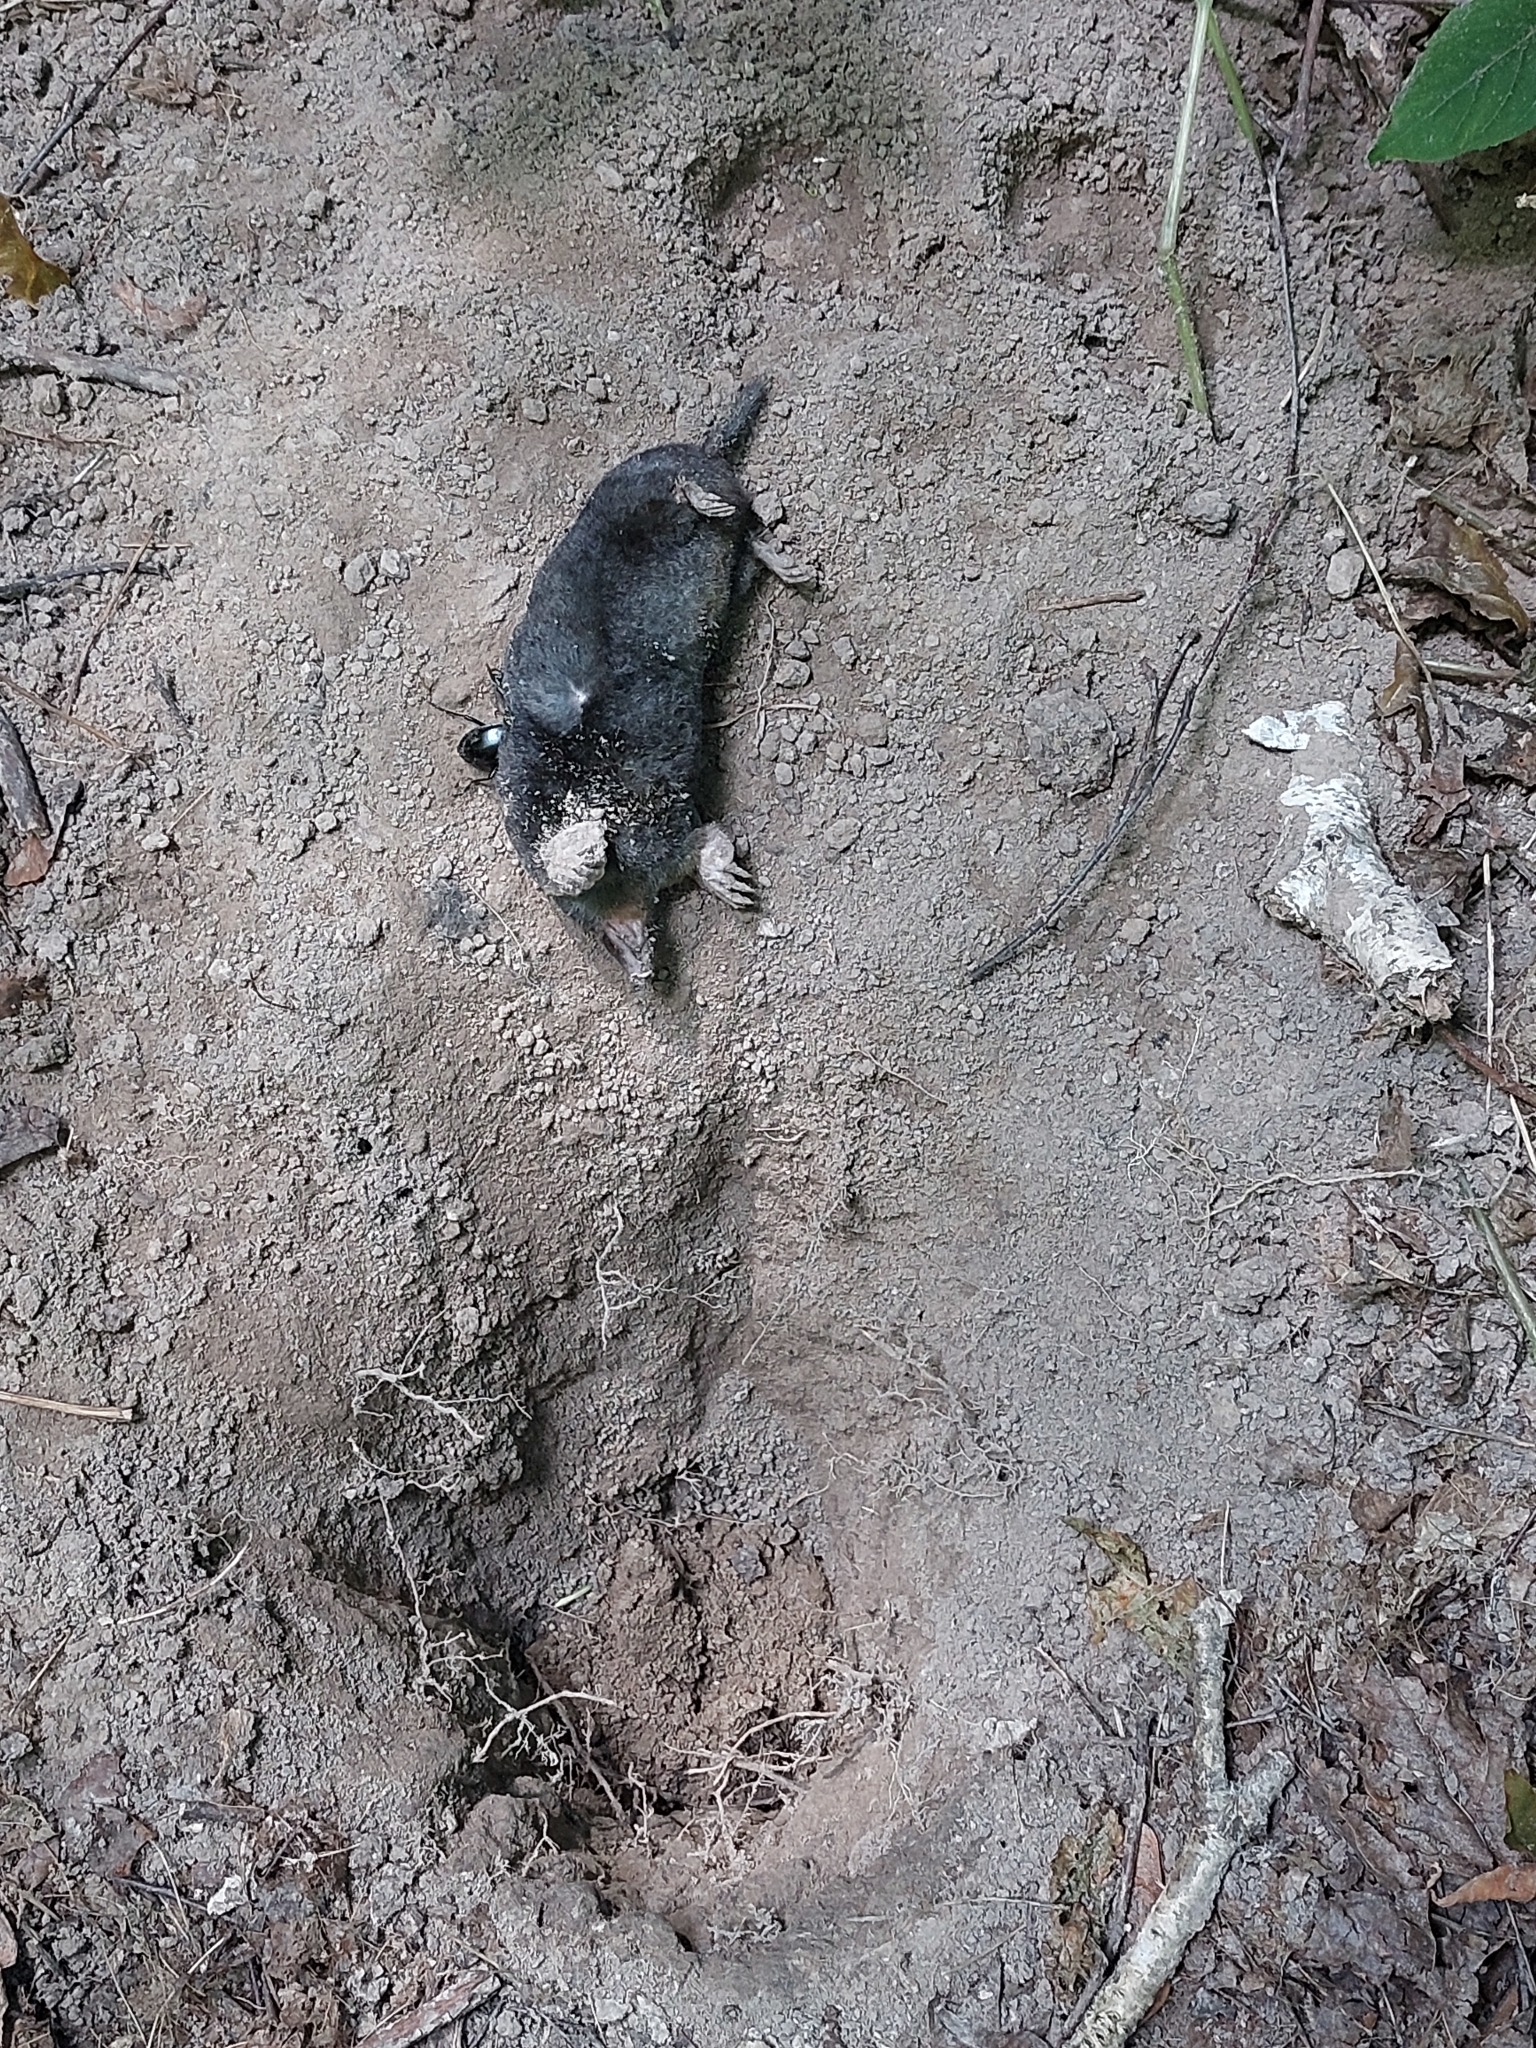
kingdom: Animalia
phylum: Chordata
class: Mammalia
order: Soricomorpha
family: Talpidae
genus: Talpa
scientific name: Talpa europaea
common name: European mole
